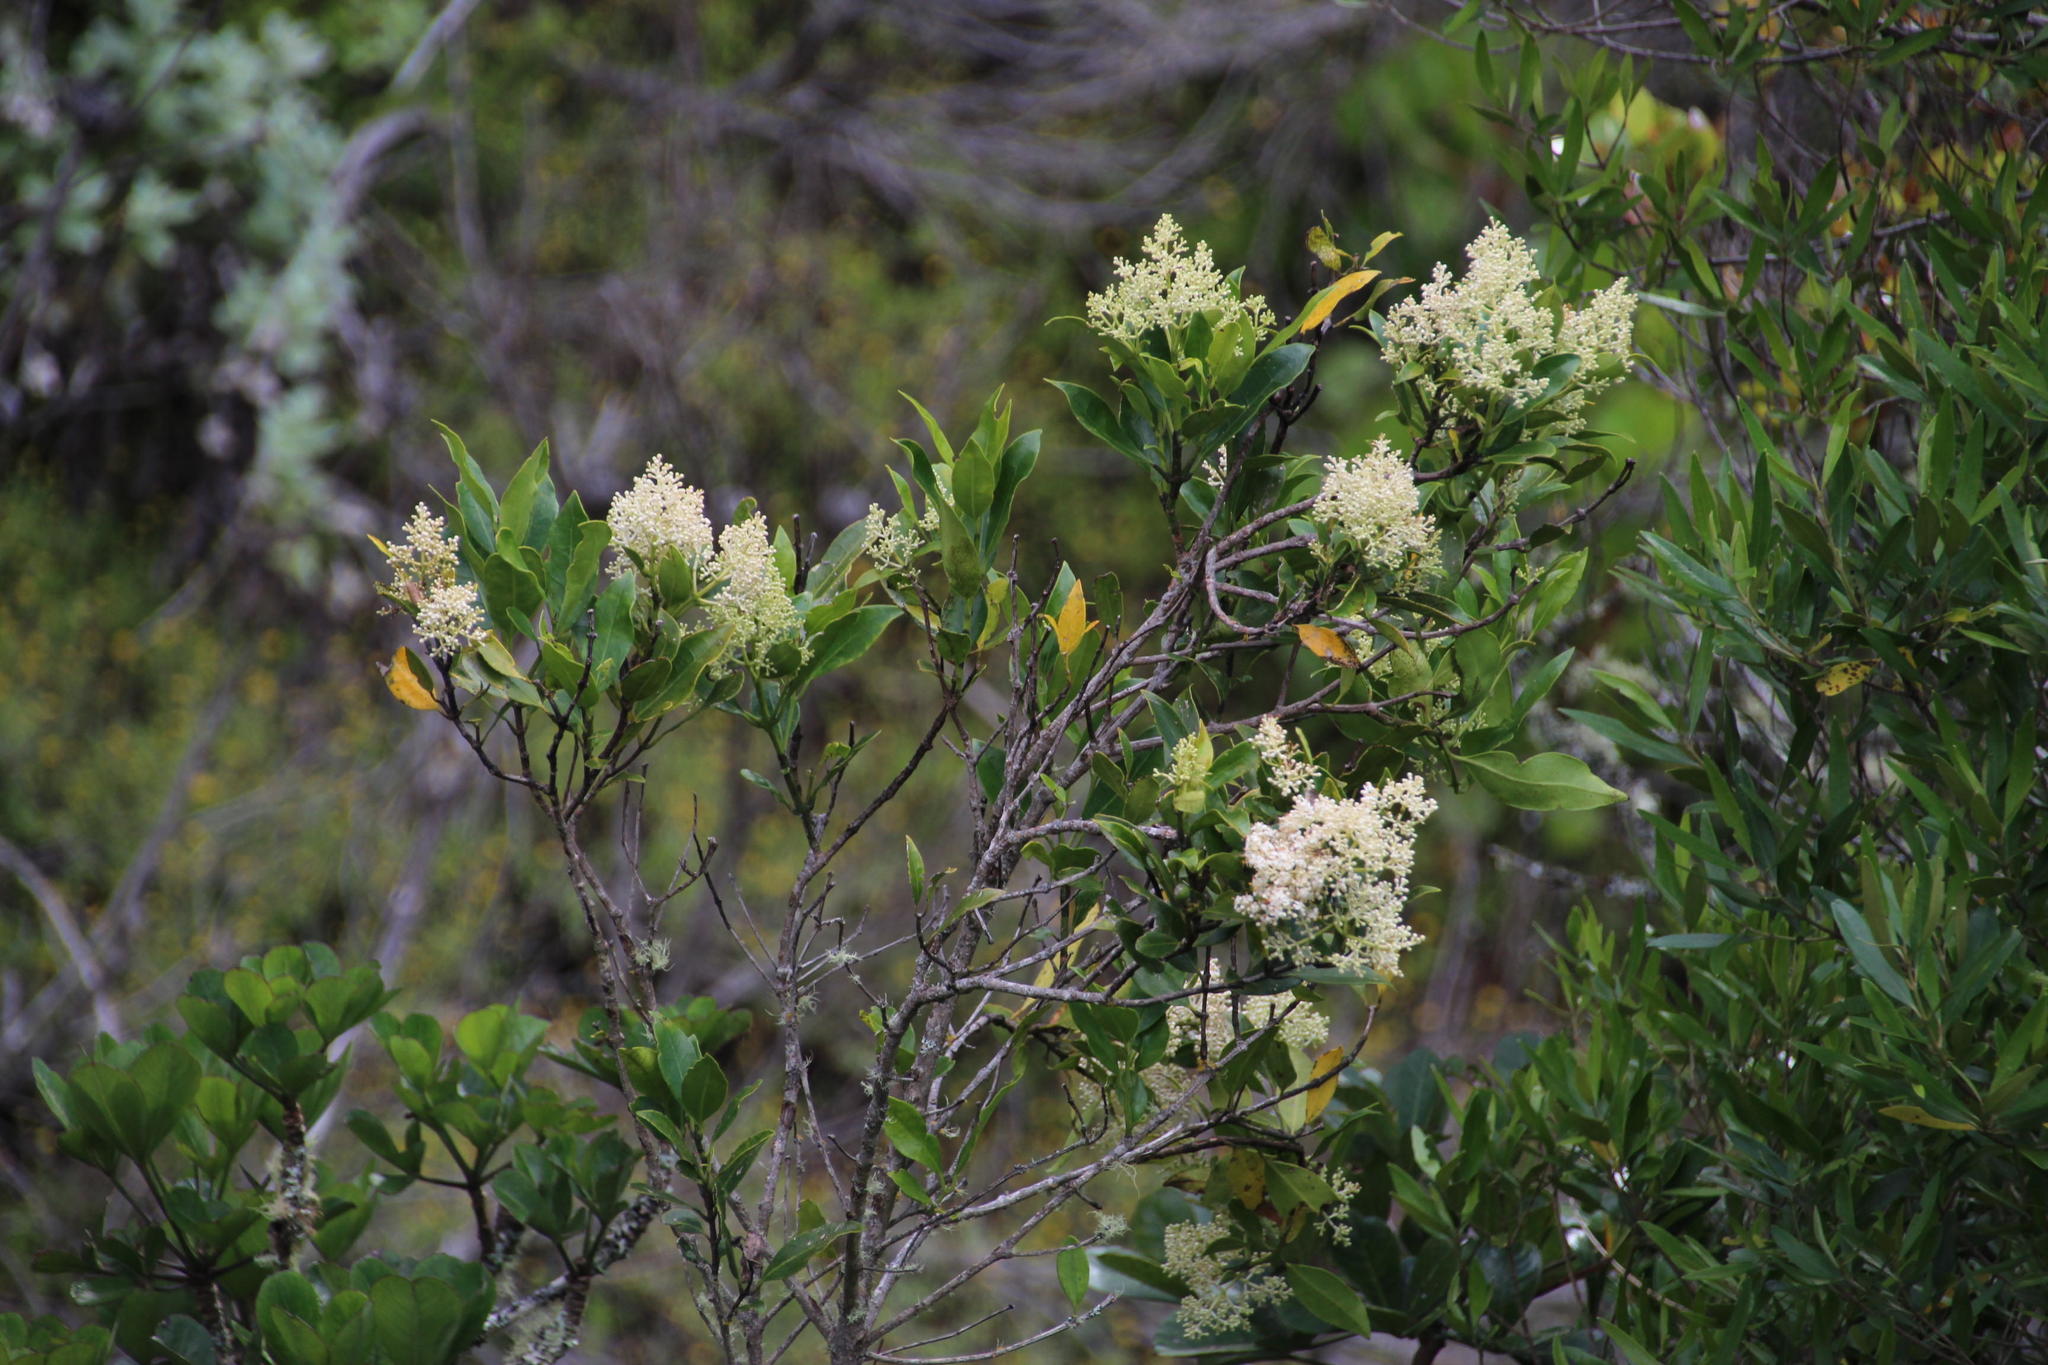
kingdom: Plantae
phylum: Tracheophyta
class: Magnoliopsida
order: Lamiales
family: Oleaceae
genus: Olea
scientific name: Olea capensis
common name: Black ironwood
